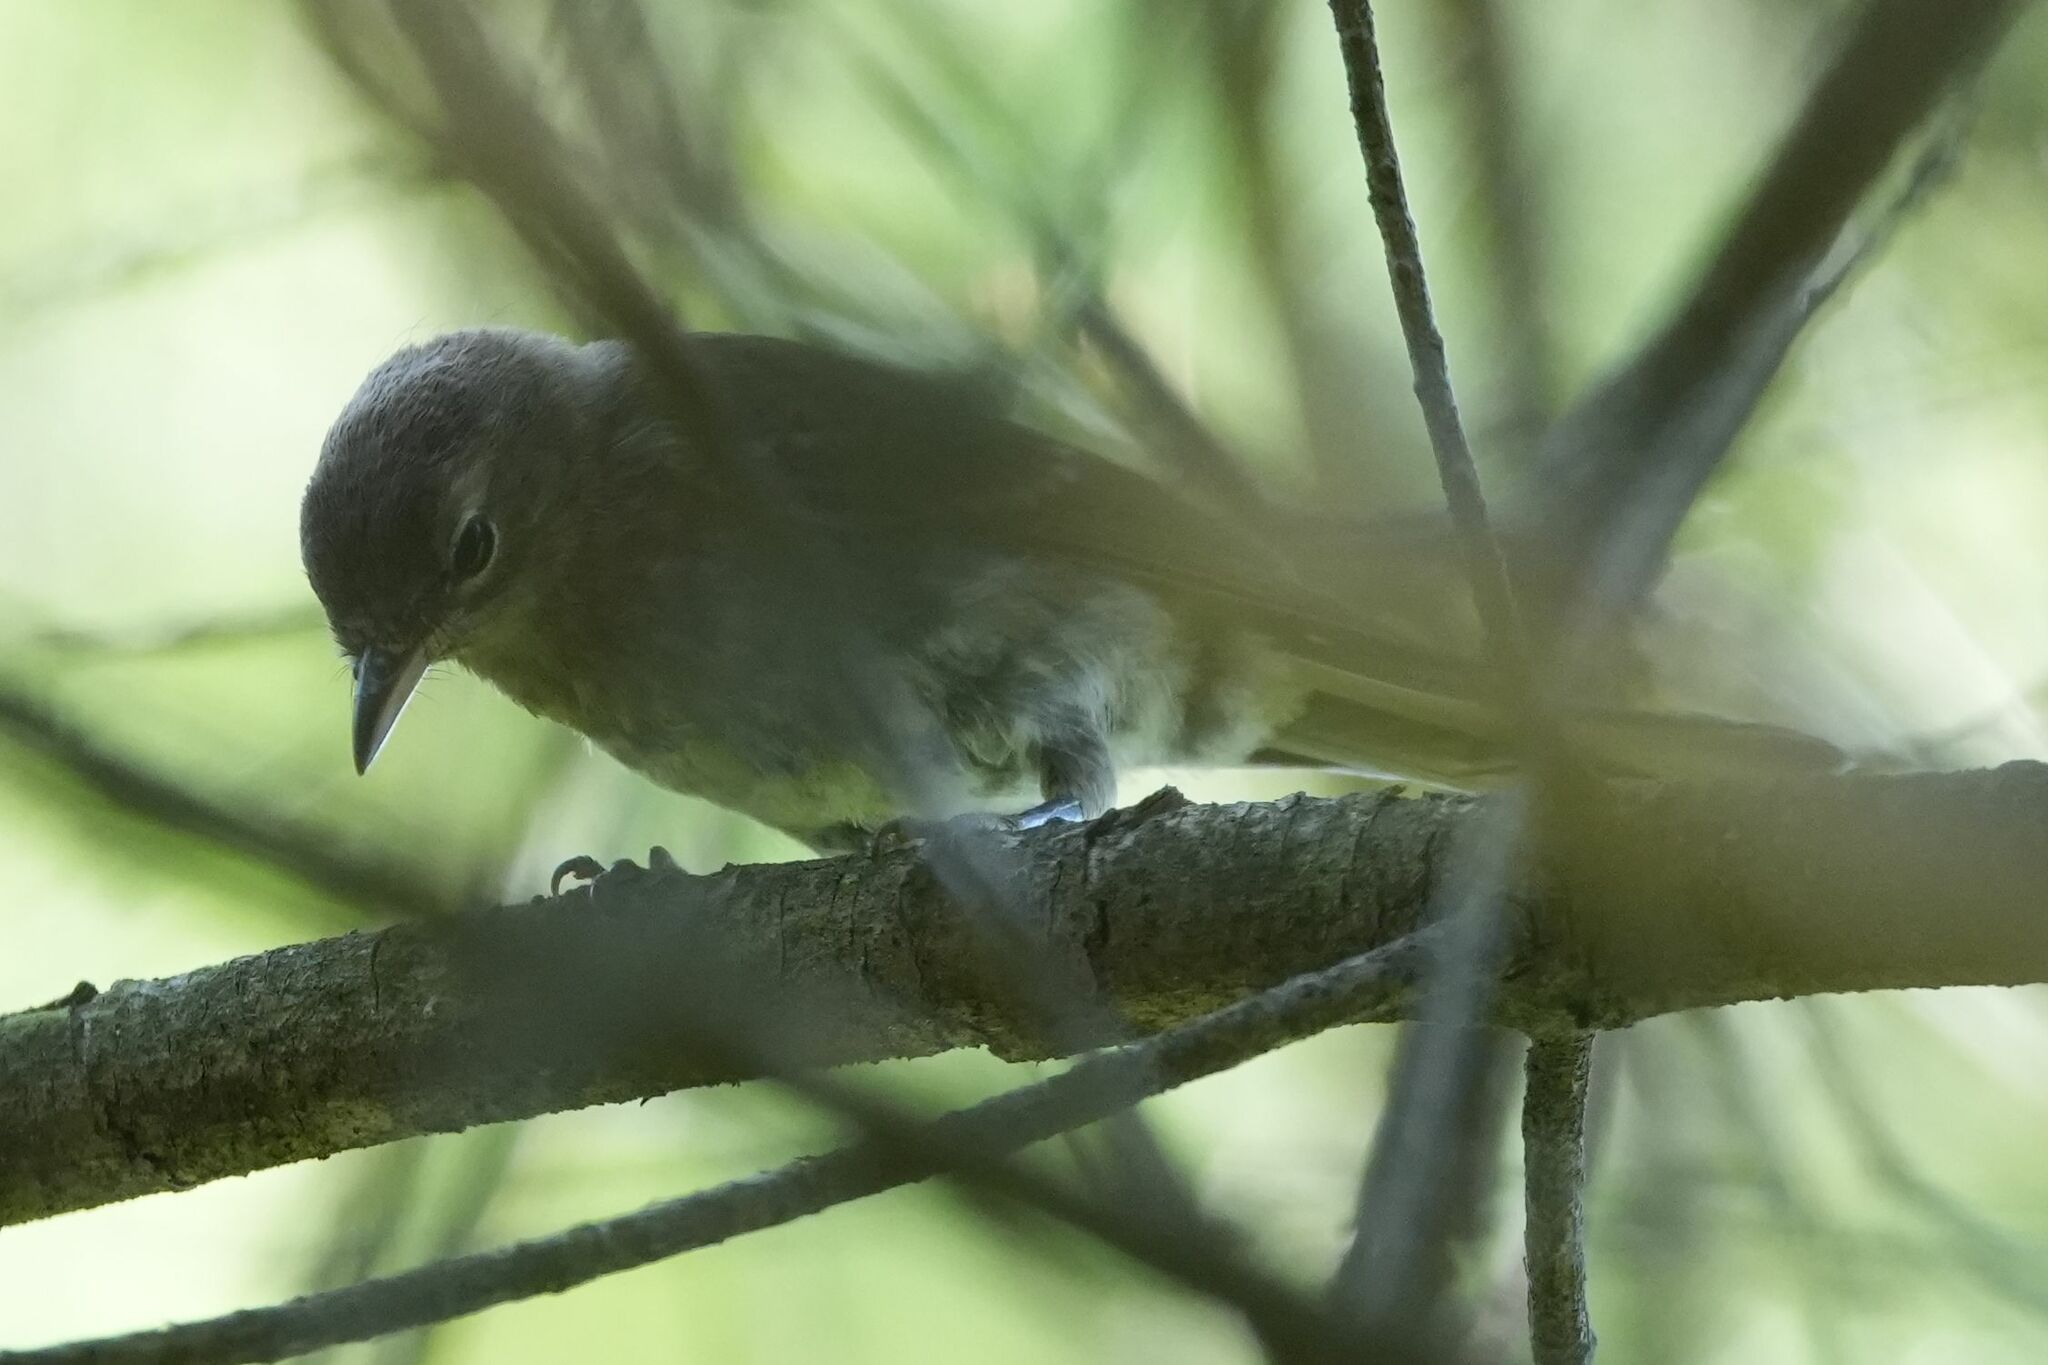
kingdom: Animalia
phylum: Chordata
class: Aves
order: Passeriformes
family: Parulidae
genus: Setophaga
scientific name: Setophaga pinus
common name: Pine warbler
